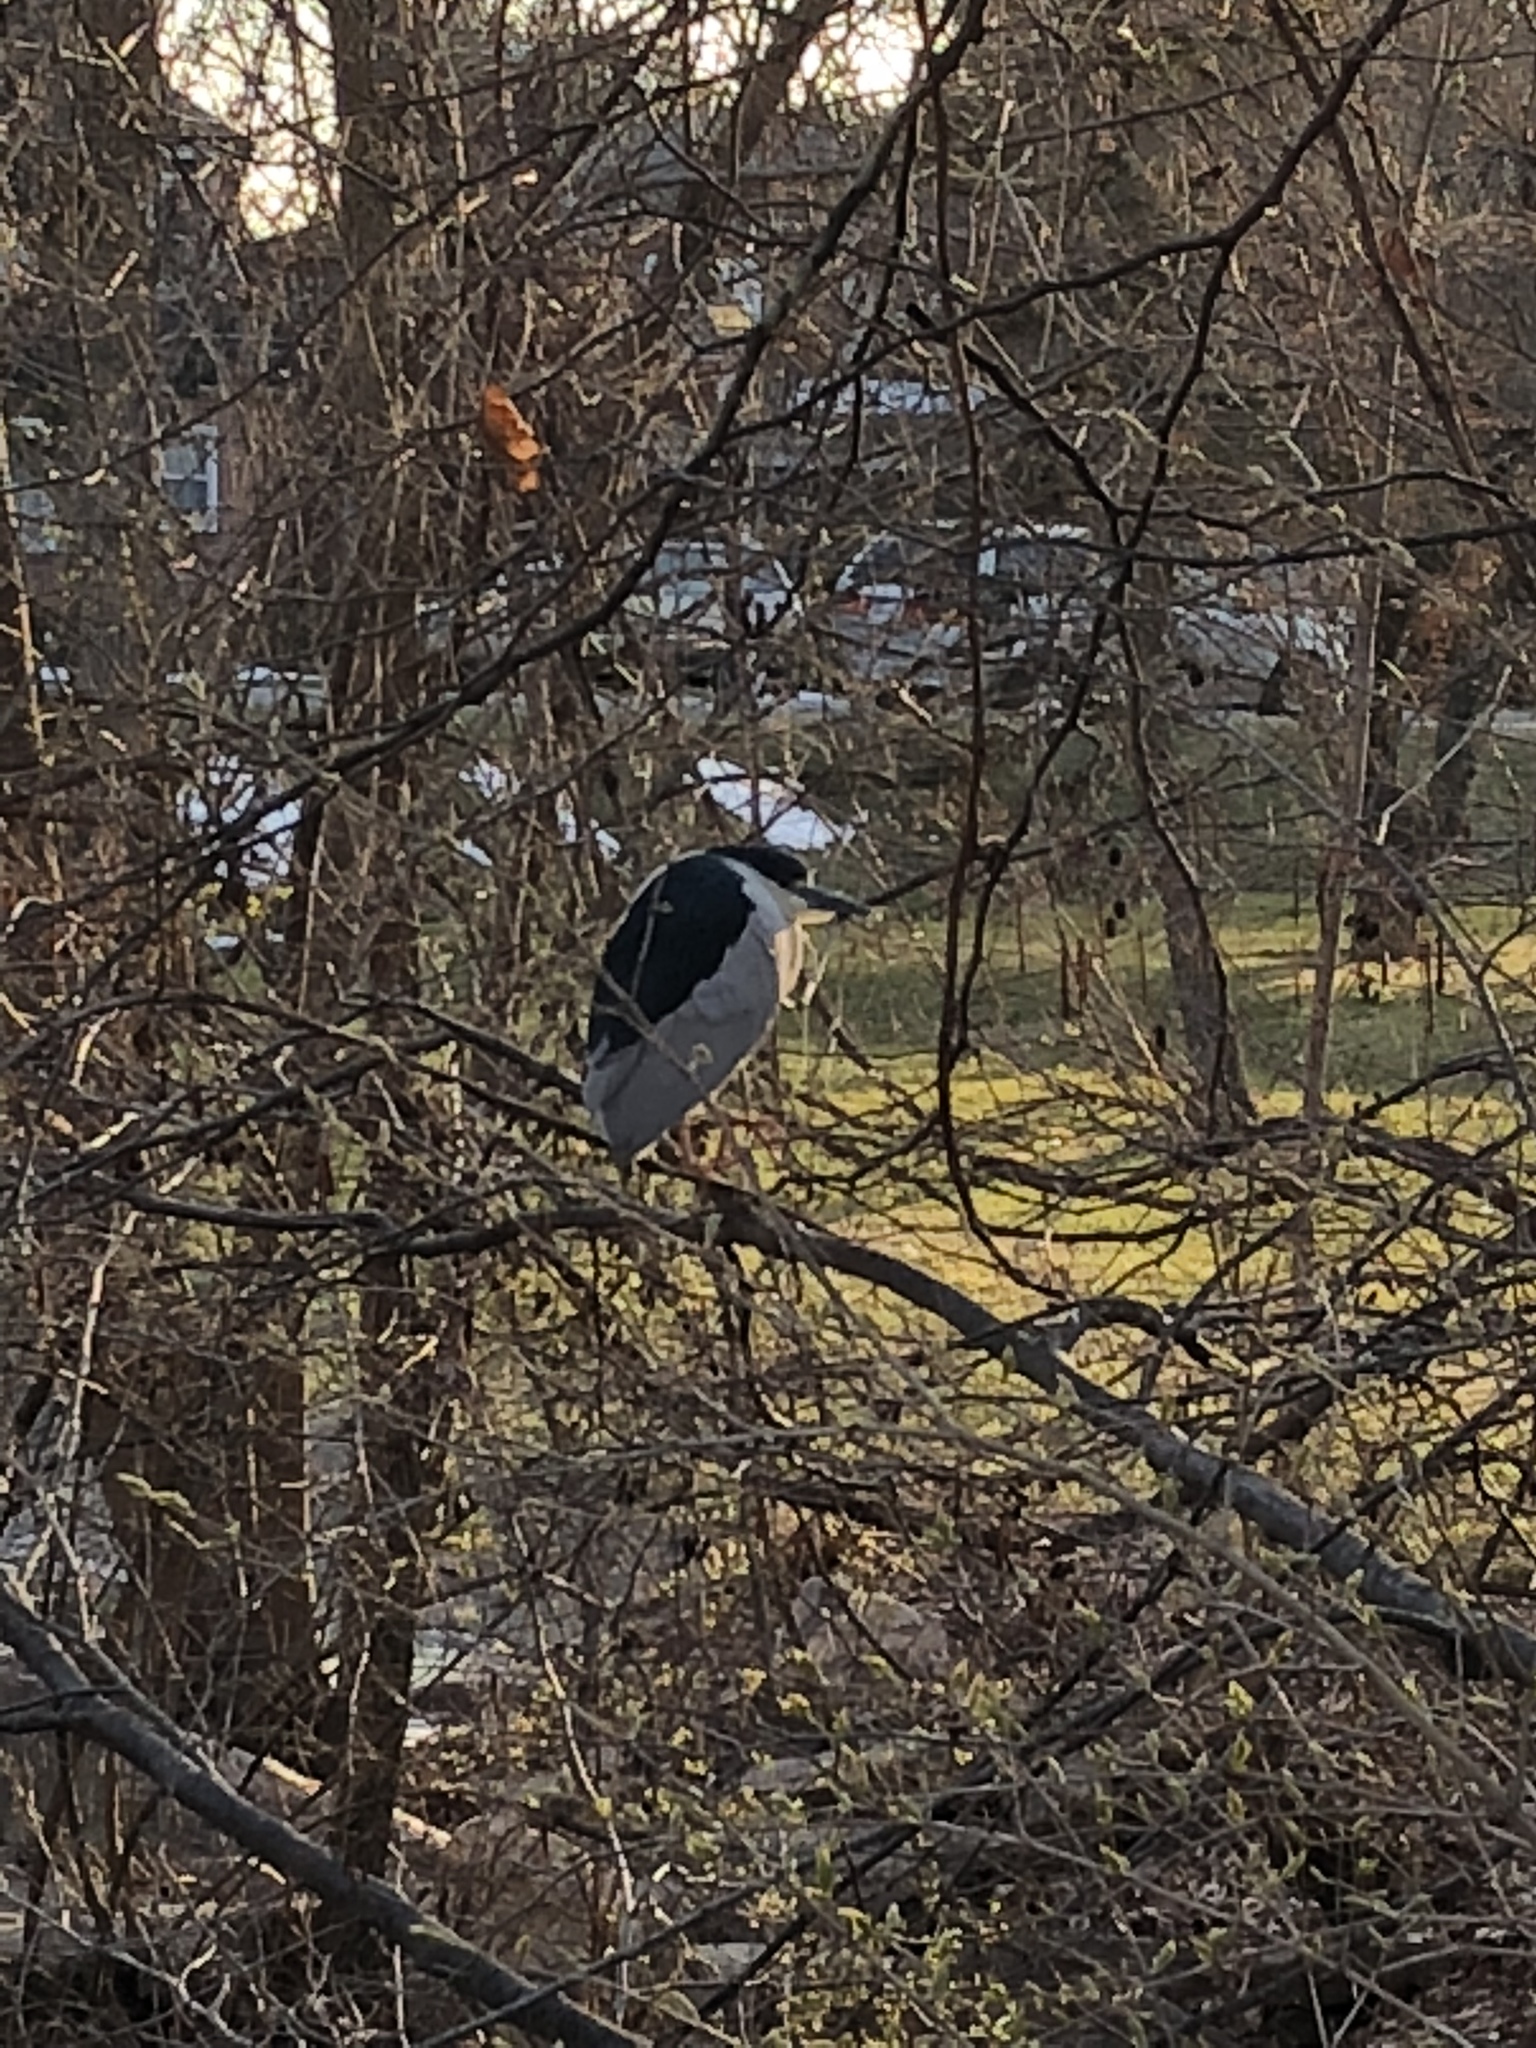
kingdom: Animalia
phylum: Chordata
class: Aves
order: Pelecaniformes
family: Ardeidae
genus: Nycticorax
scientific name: Nycticorax nycticorax
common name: Black-crowned night heron
